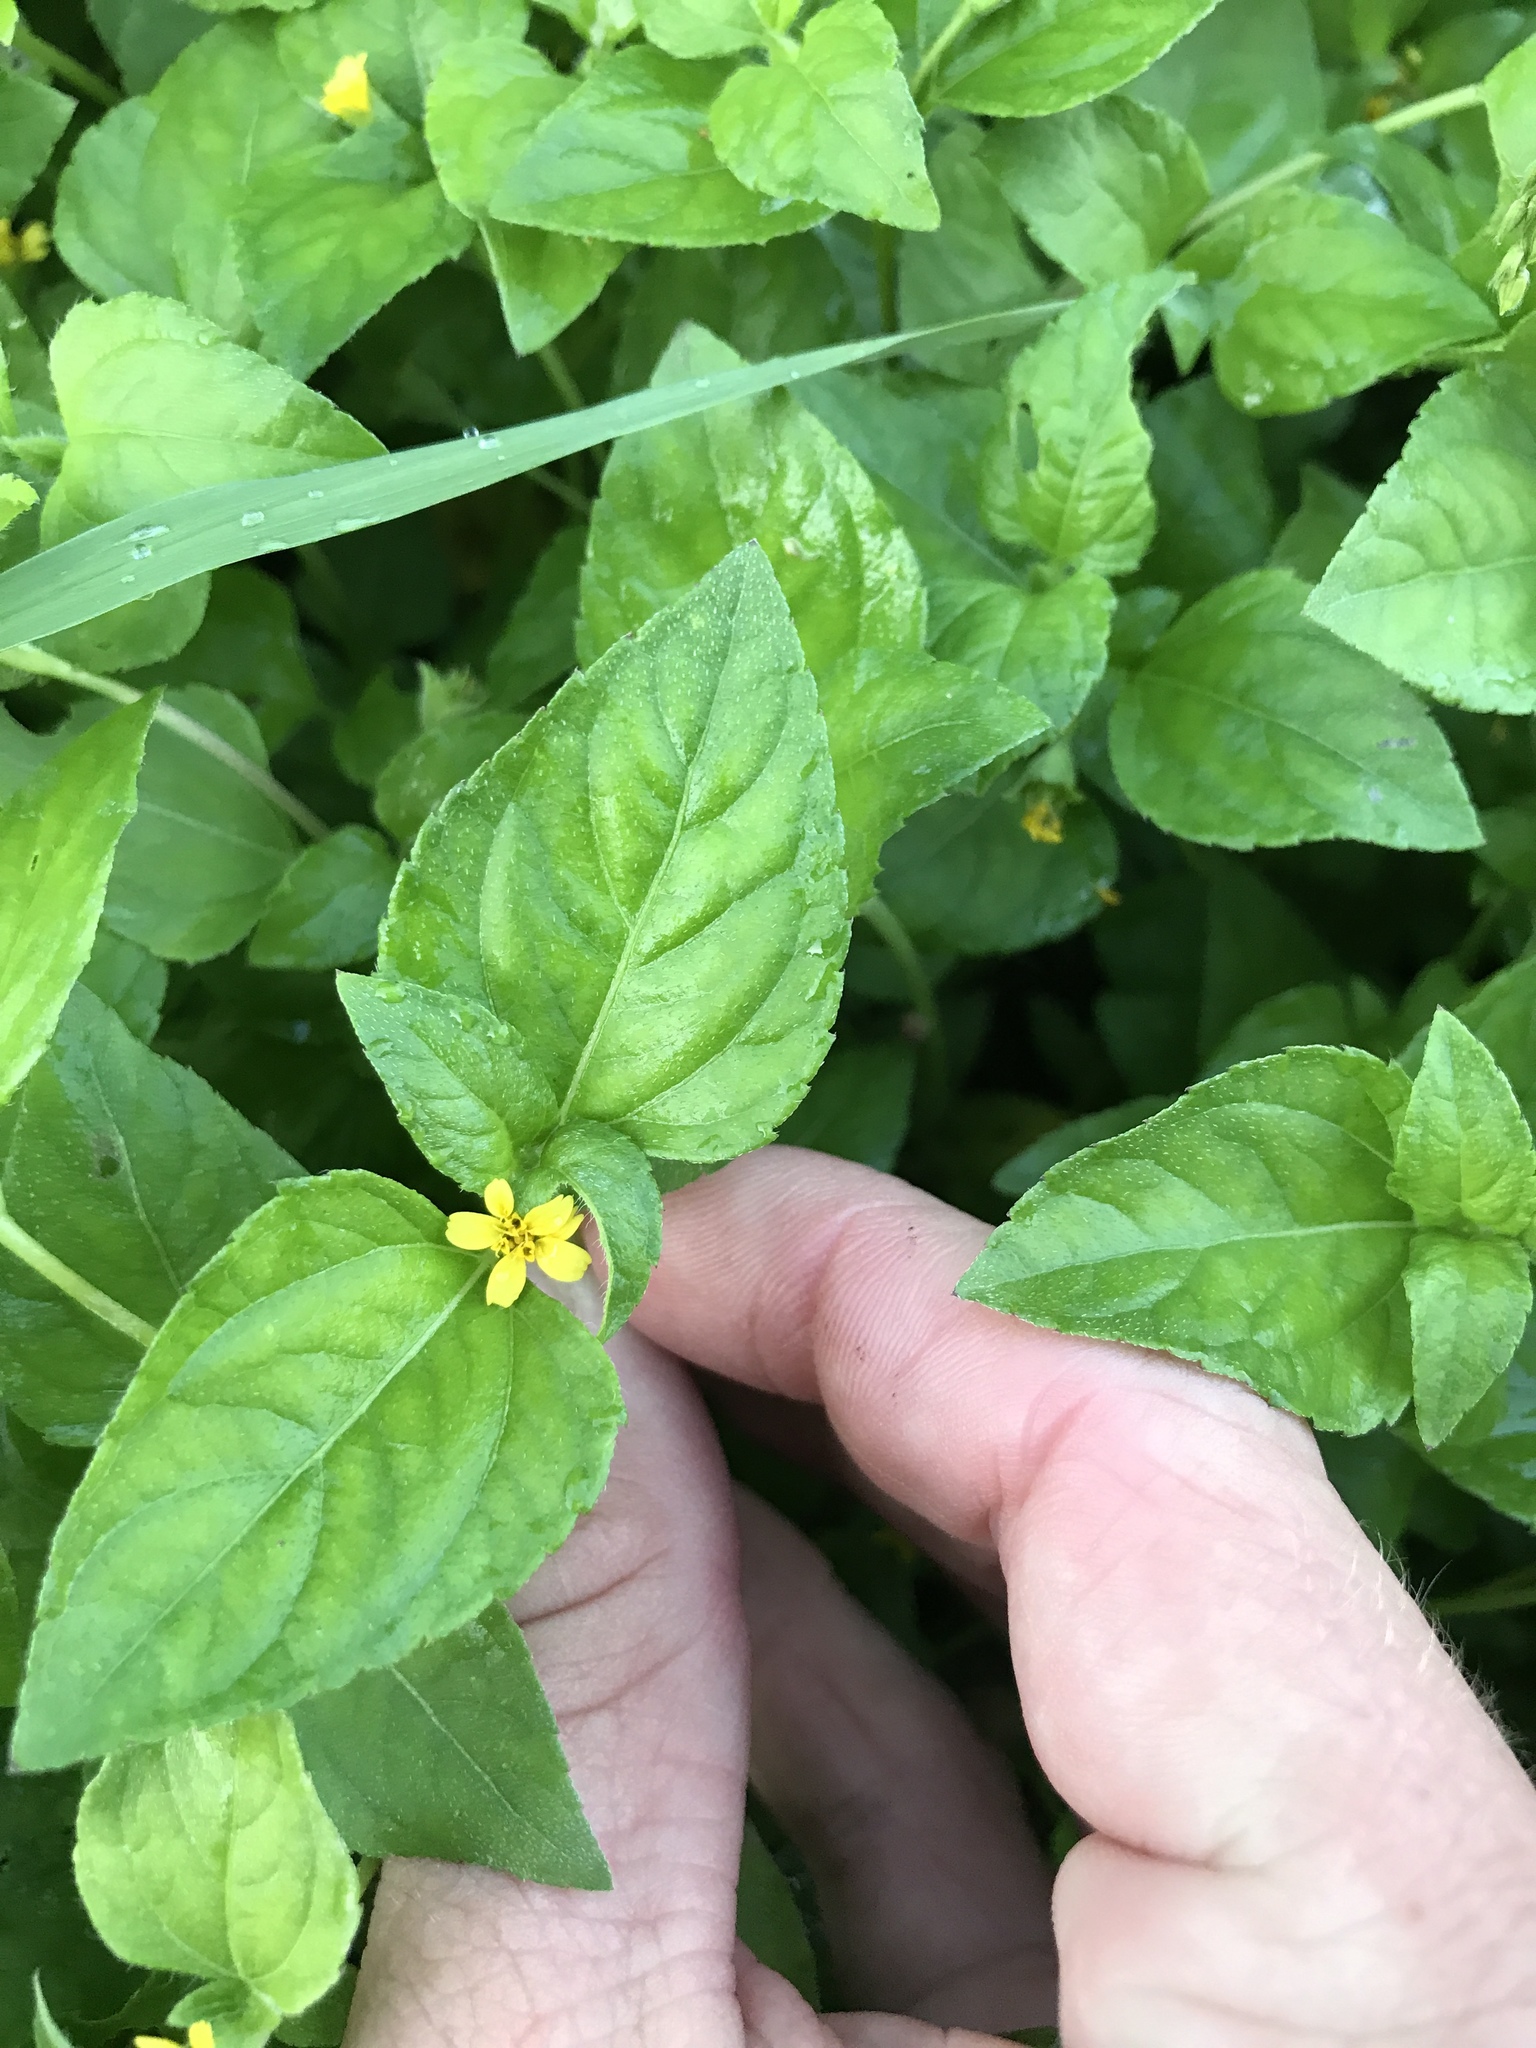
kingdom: Plantae
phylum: Tracheophyta
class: Magnoliopsida
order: Asterales
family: Asteraceae
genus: Calyptocarpus
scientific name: Calyptocarpus vialis
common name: Straggler daisy
